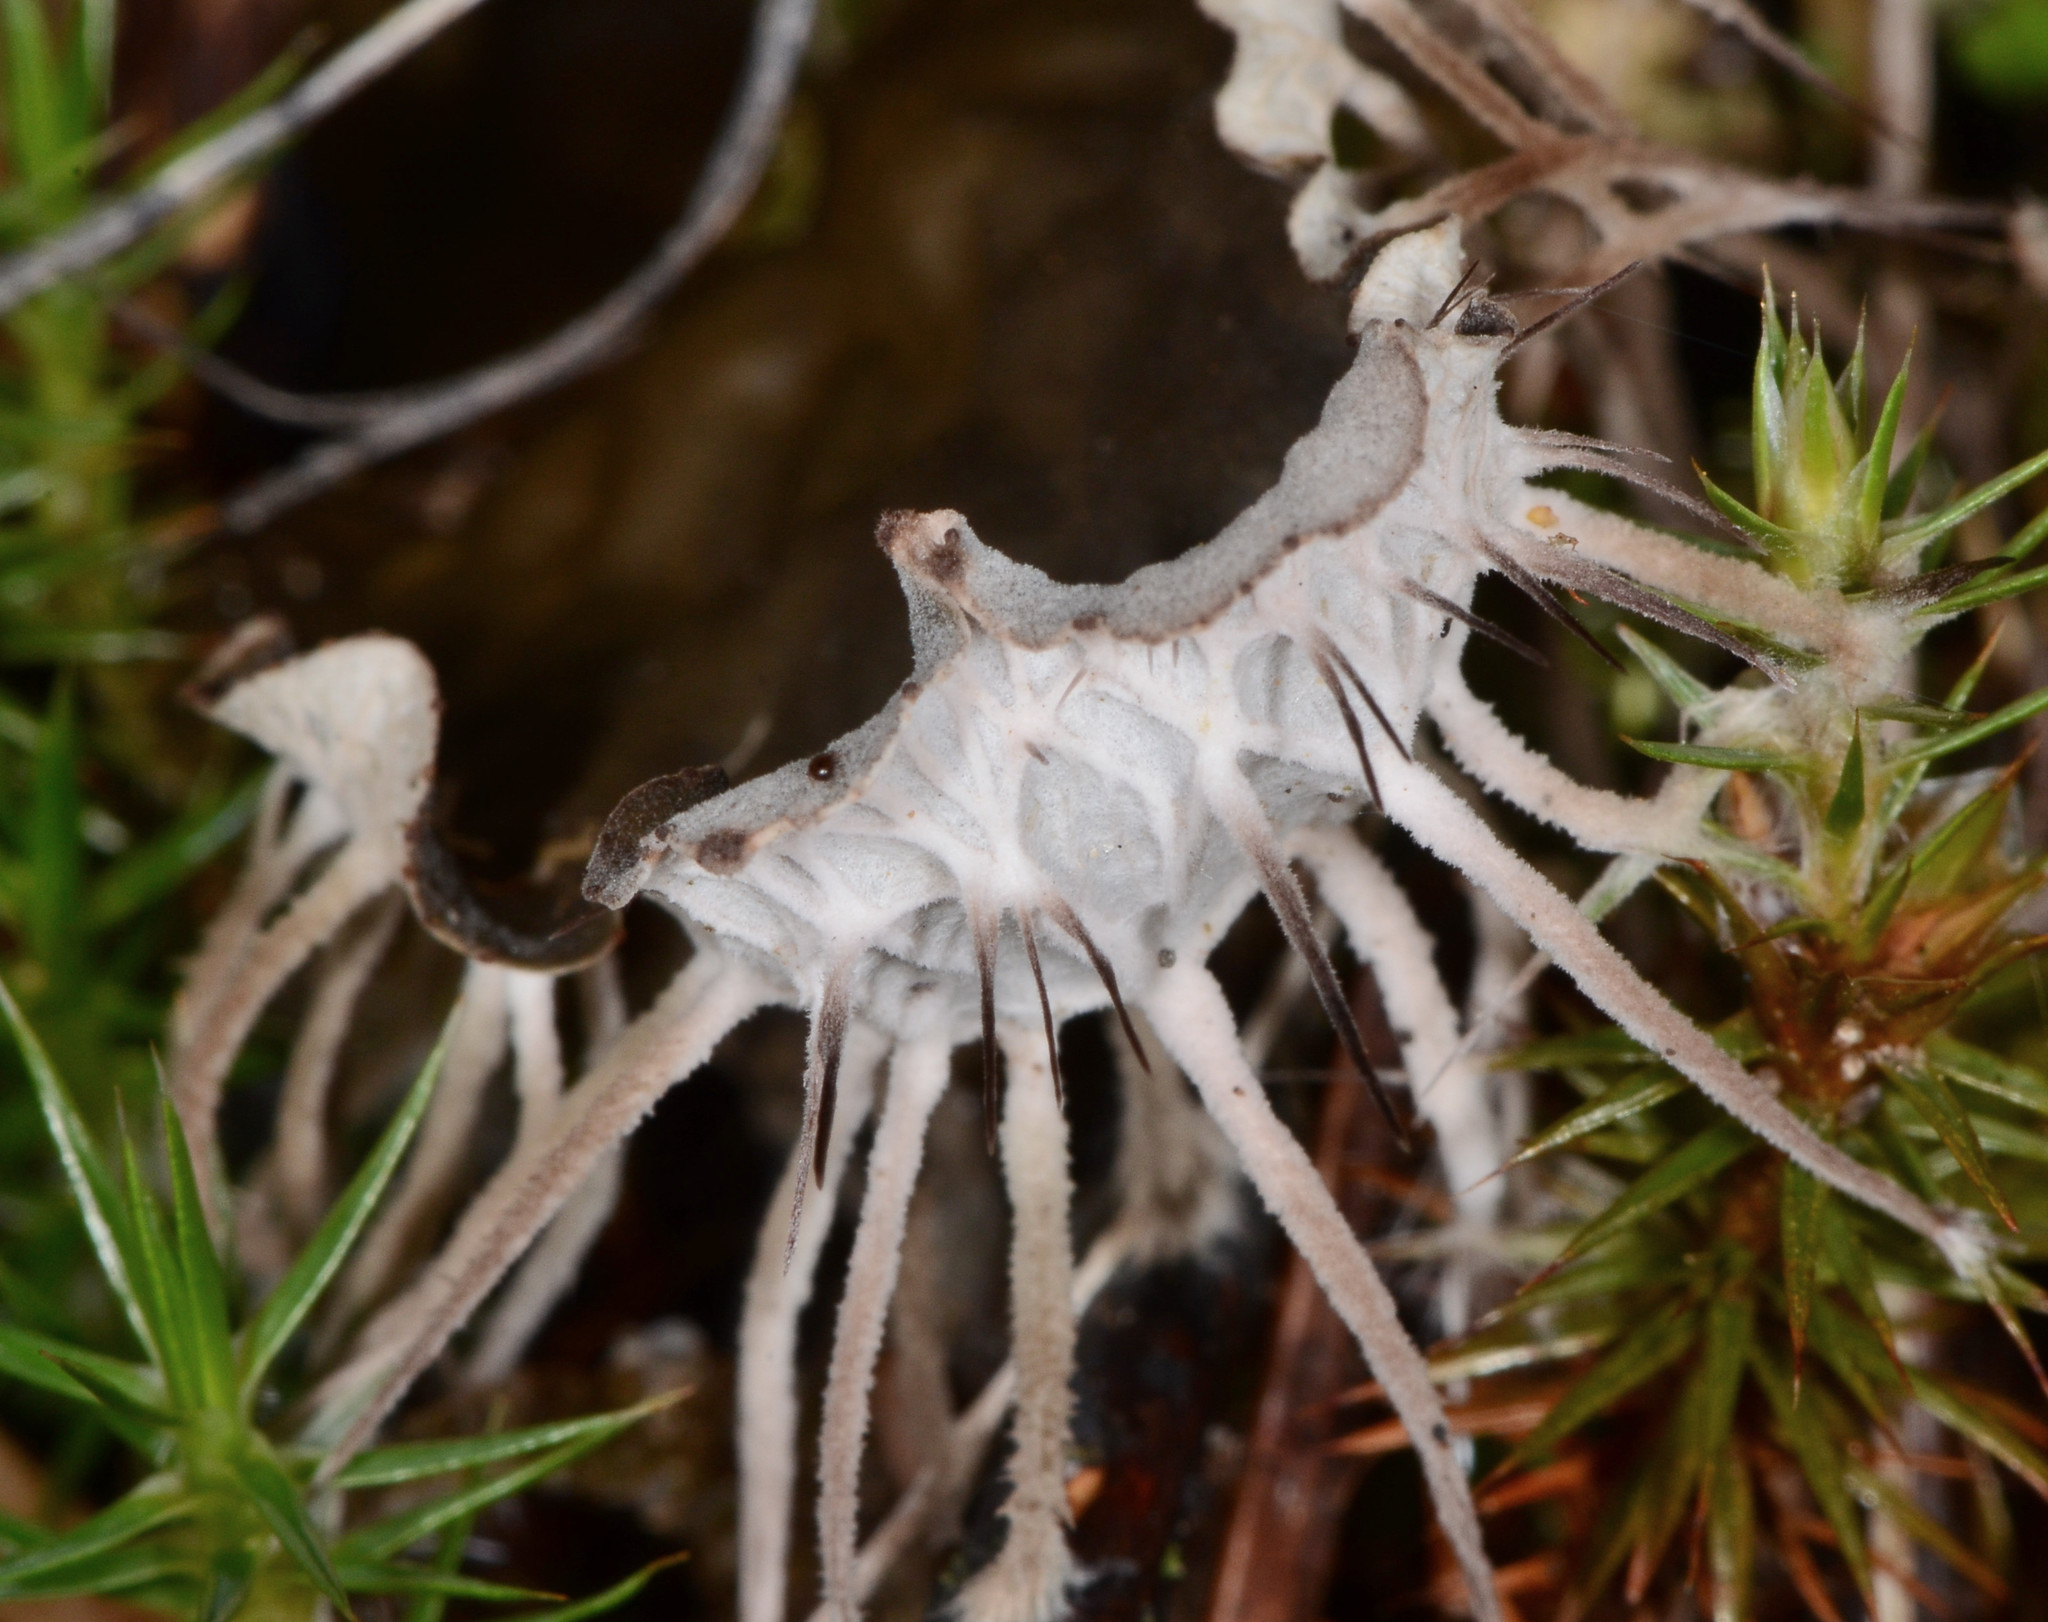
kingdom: Fungi
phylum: Ascomycota
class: Lecanoromycetes
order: Peltigerales
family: Peltigeraceae
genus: Peltigera
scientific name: Peltigera membranacea
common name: Membranous pelt lichen
